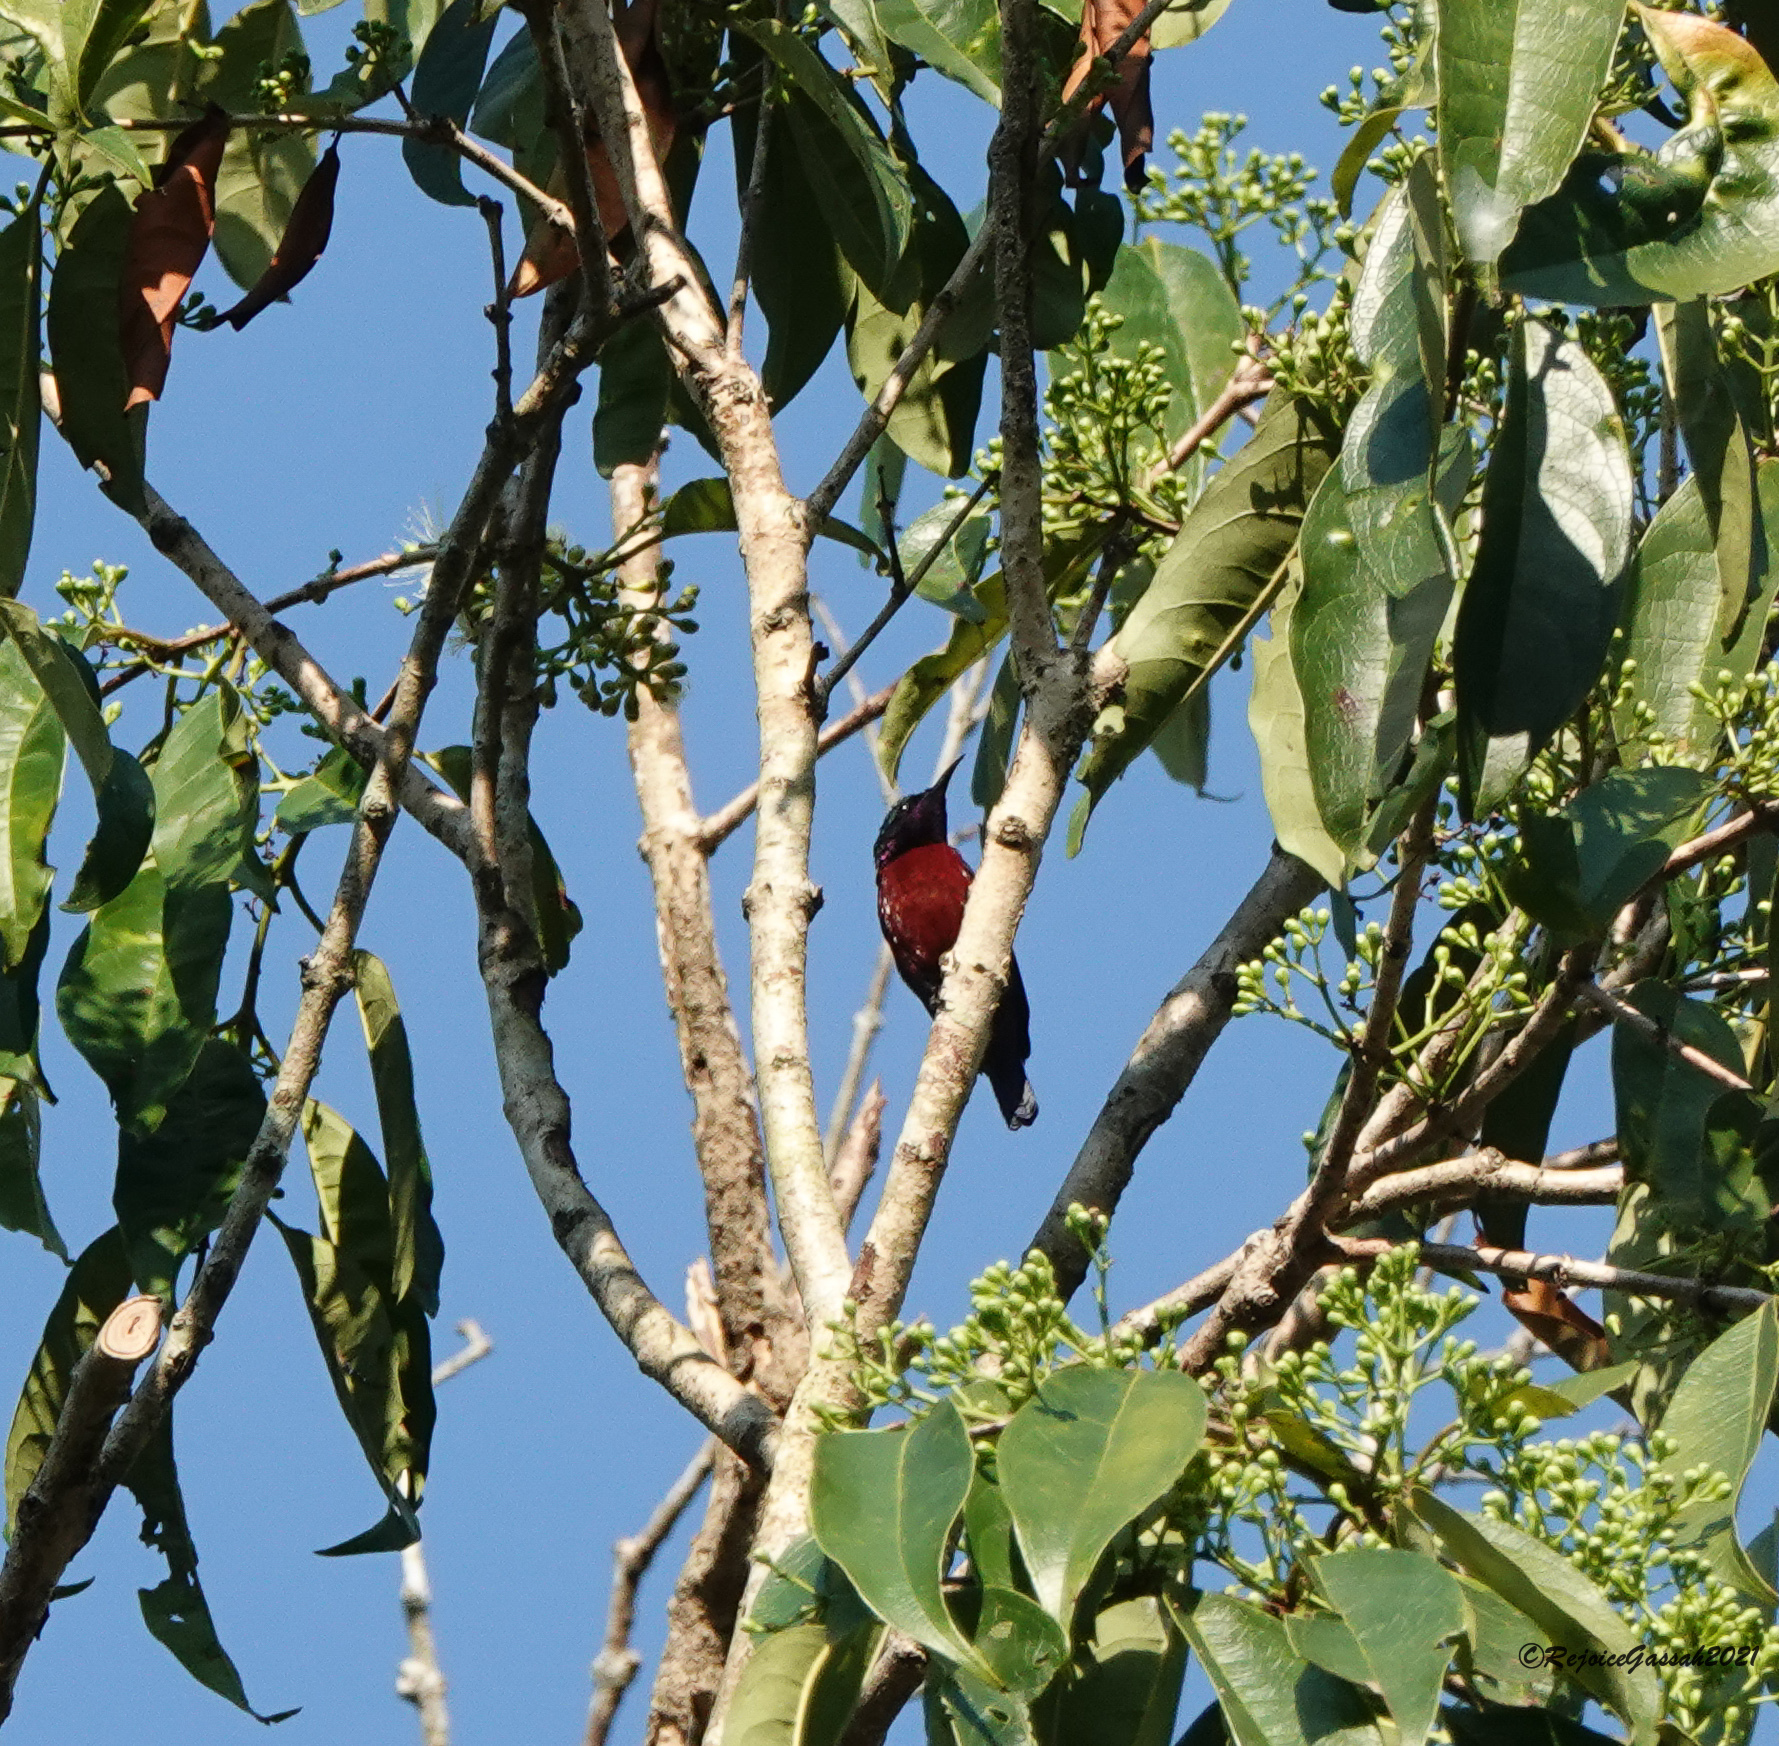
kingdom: Animalia
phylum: Chordata
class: Aves
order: Passeriformes
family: Nectariniidae
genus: Leptocoma
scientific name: Leptocoma brasiliana
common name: Van hasselt's sunbird
